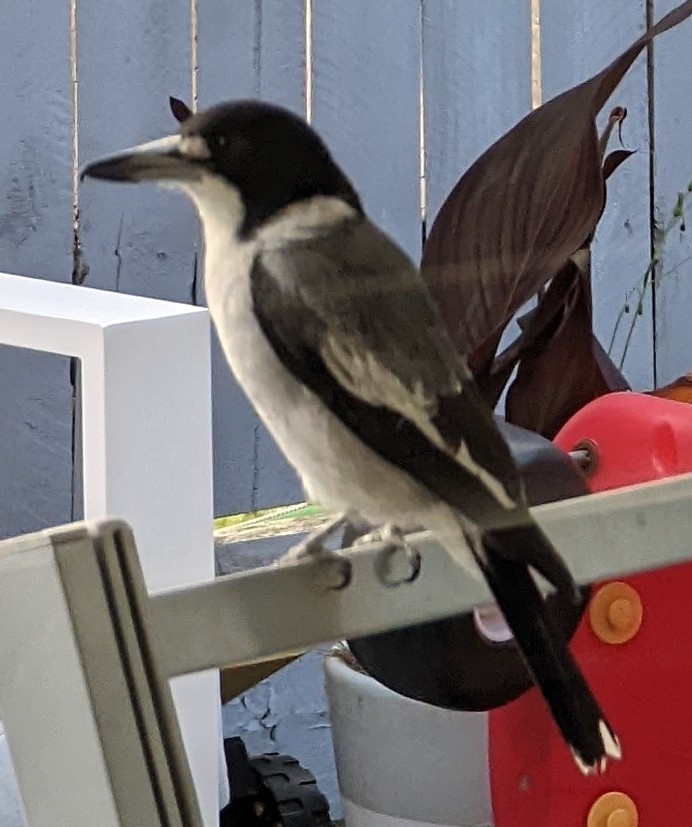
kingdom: Animalia
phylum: Chordata
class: Aves
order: Passeriformes
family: Cracticidae
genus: Cracticus
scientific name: Cracticus torquatus
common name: Grey butcherbird
